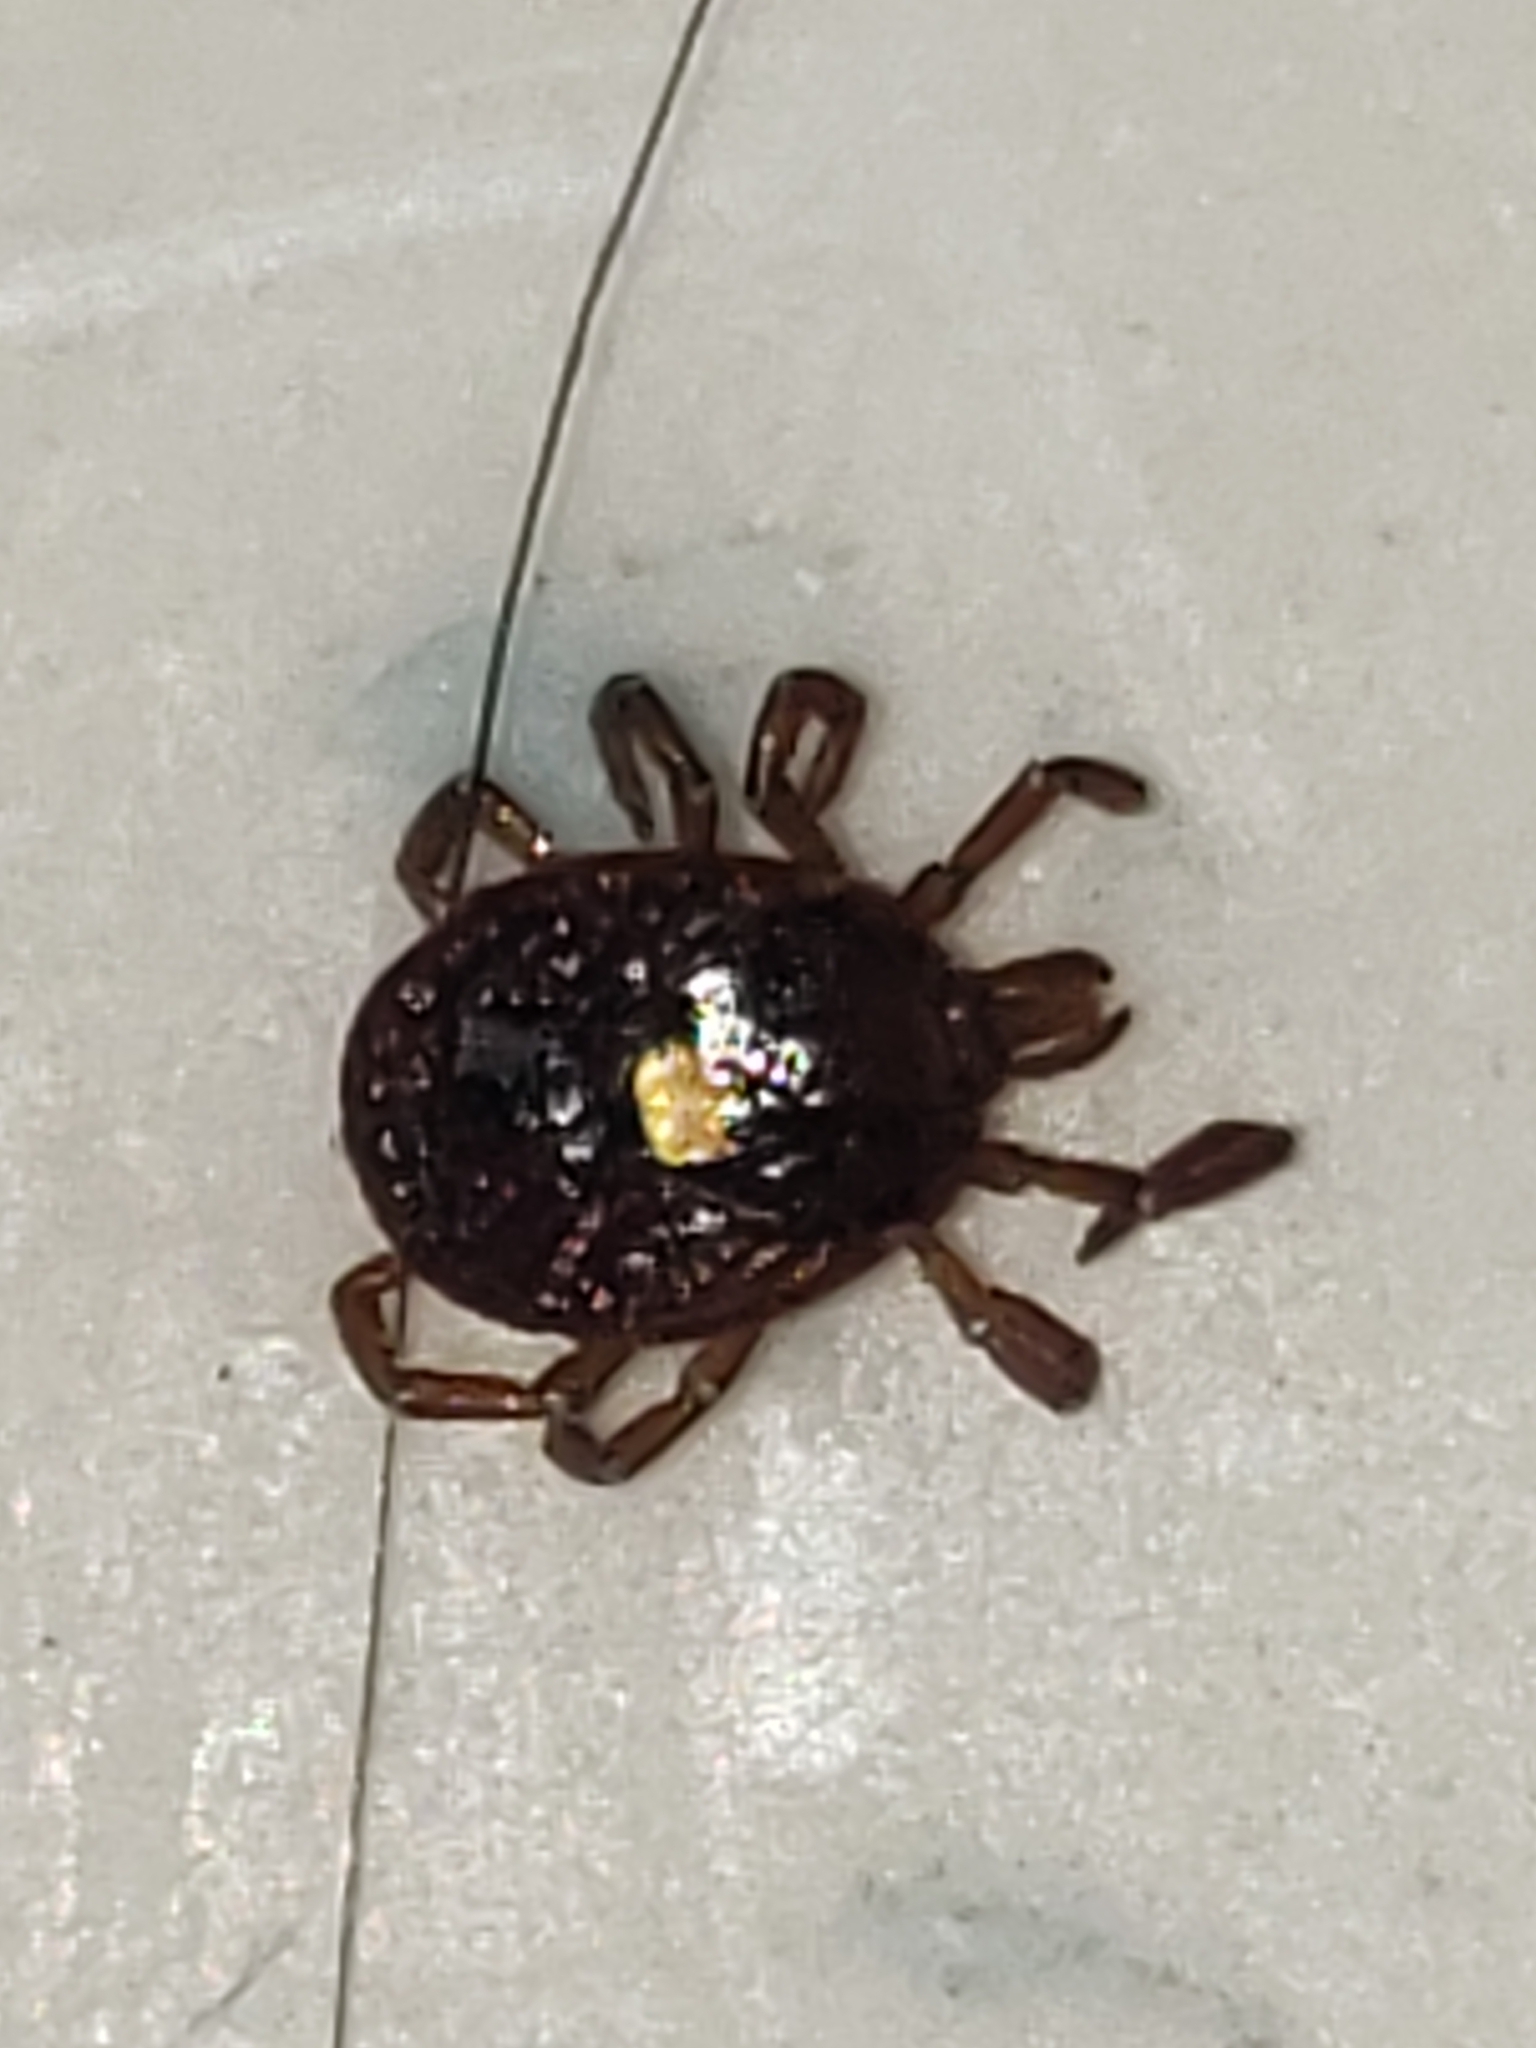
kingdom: Animalia
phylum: Arthropoda
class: Arachnida
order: Ixodida
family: Ixodidae
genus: Amblyomma
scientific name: Amblyomma americanum
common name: Lone star tick
